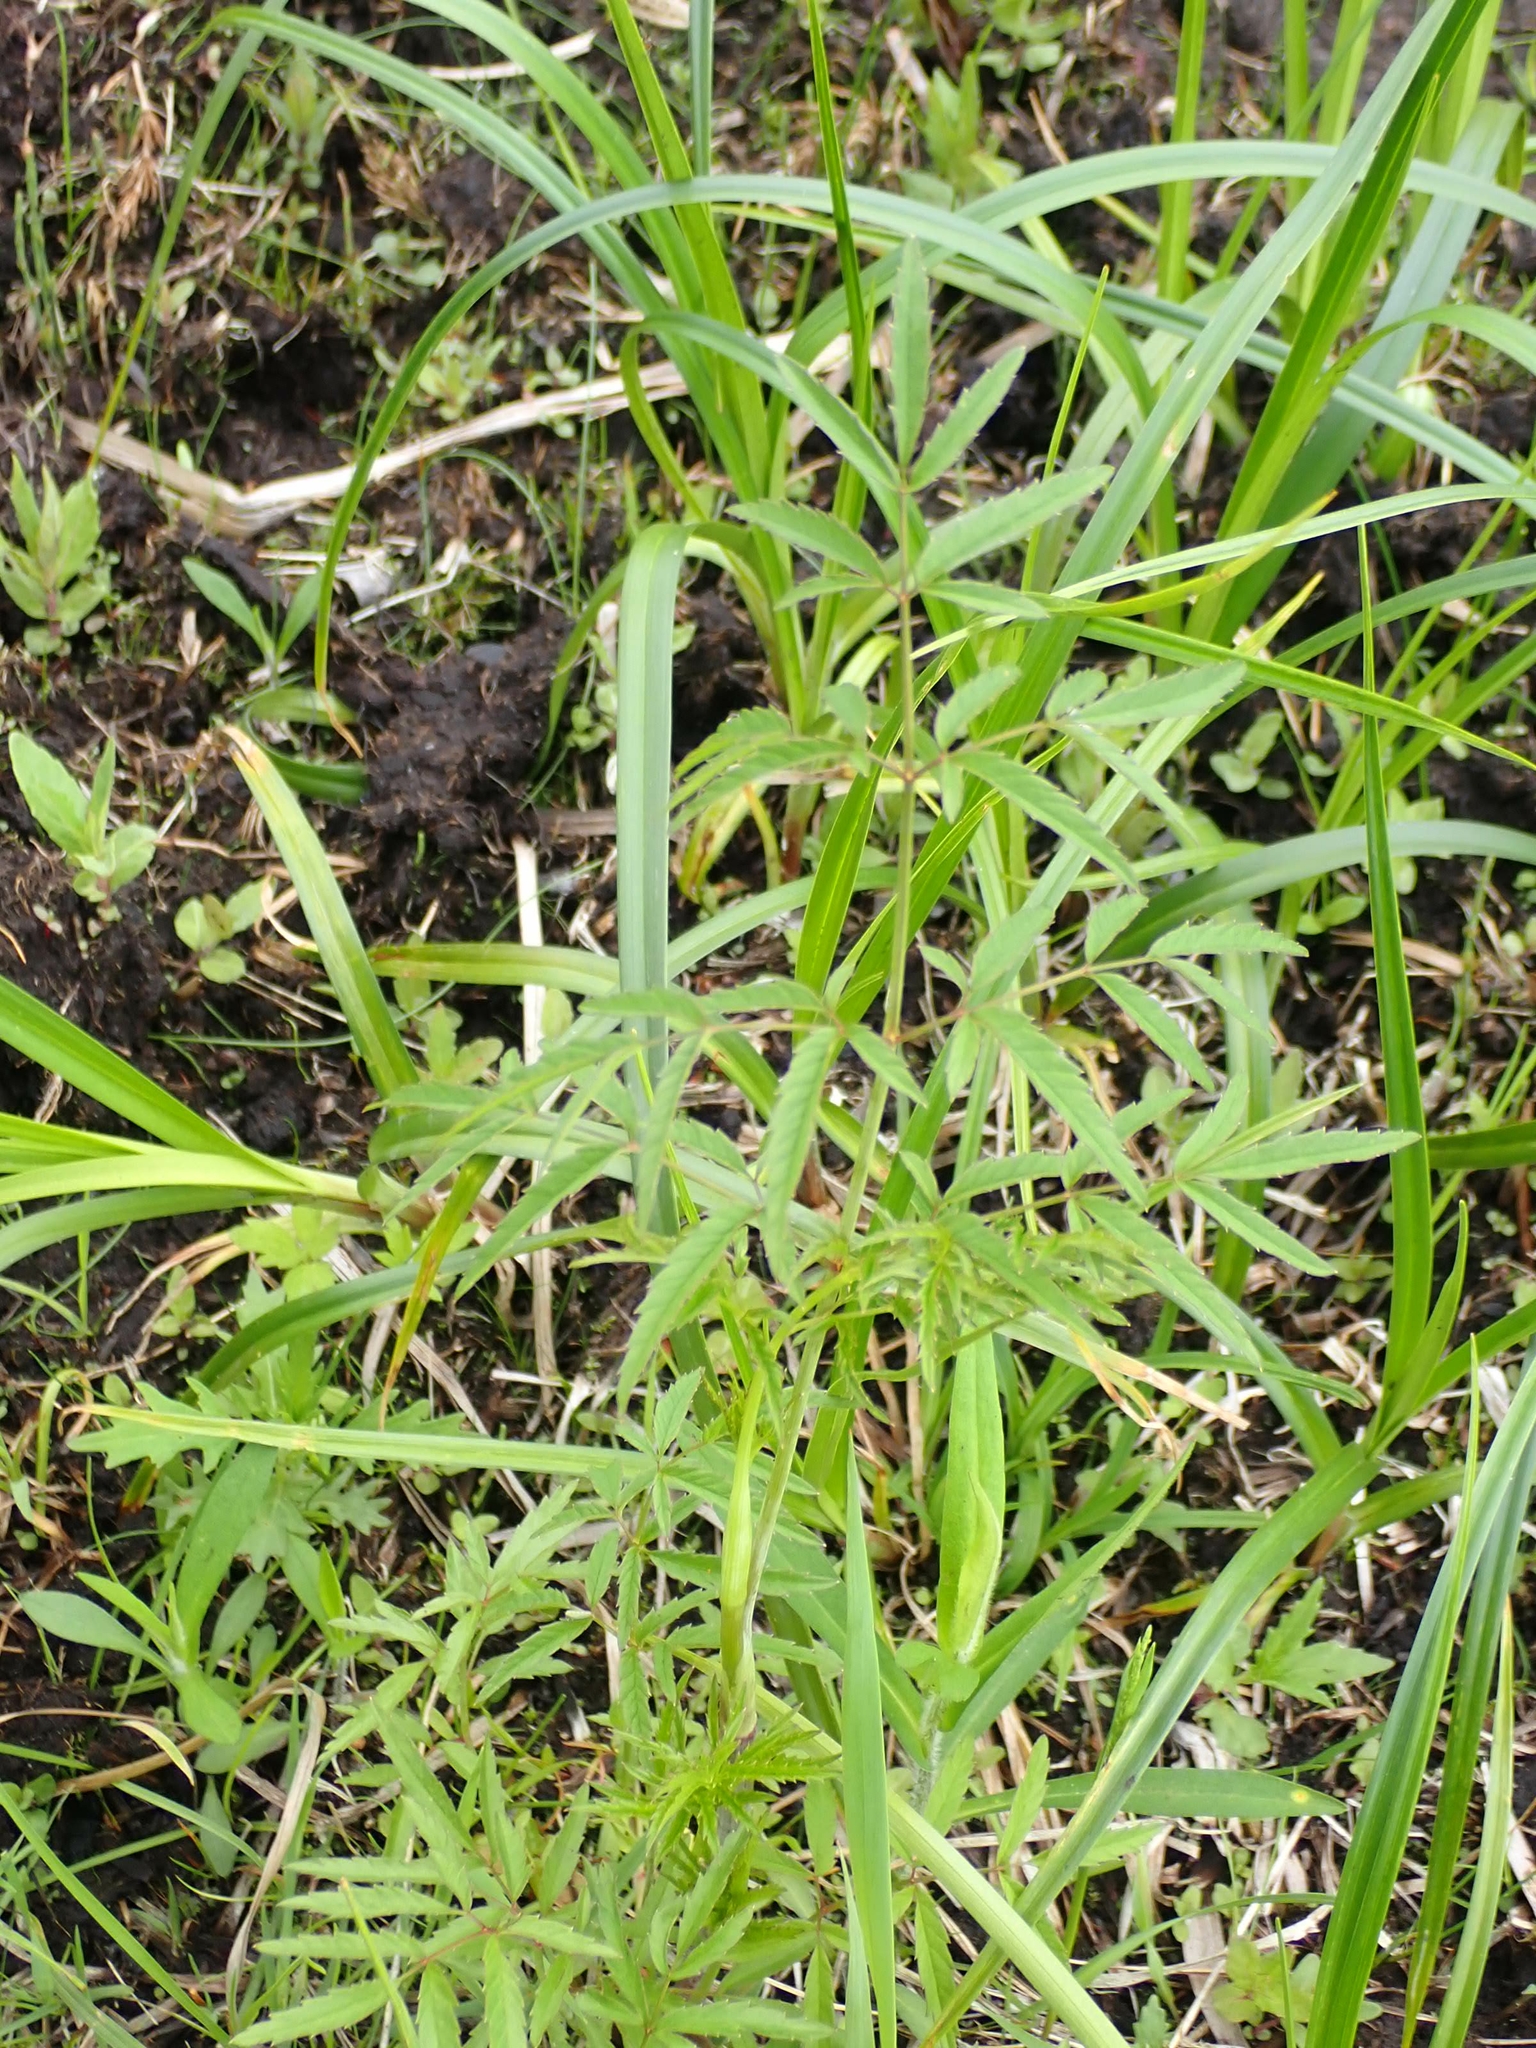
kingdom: Plantae
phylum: Tracheophyta
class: Magnoliopsida
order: Apiales
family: Apiaceae
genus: Cicuta
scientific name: Cicuta maculata
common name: Spotted cowbane
